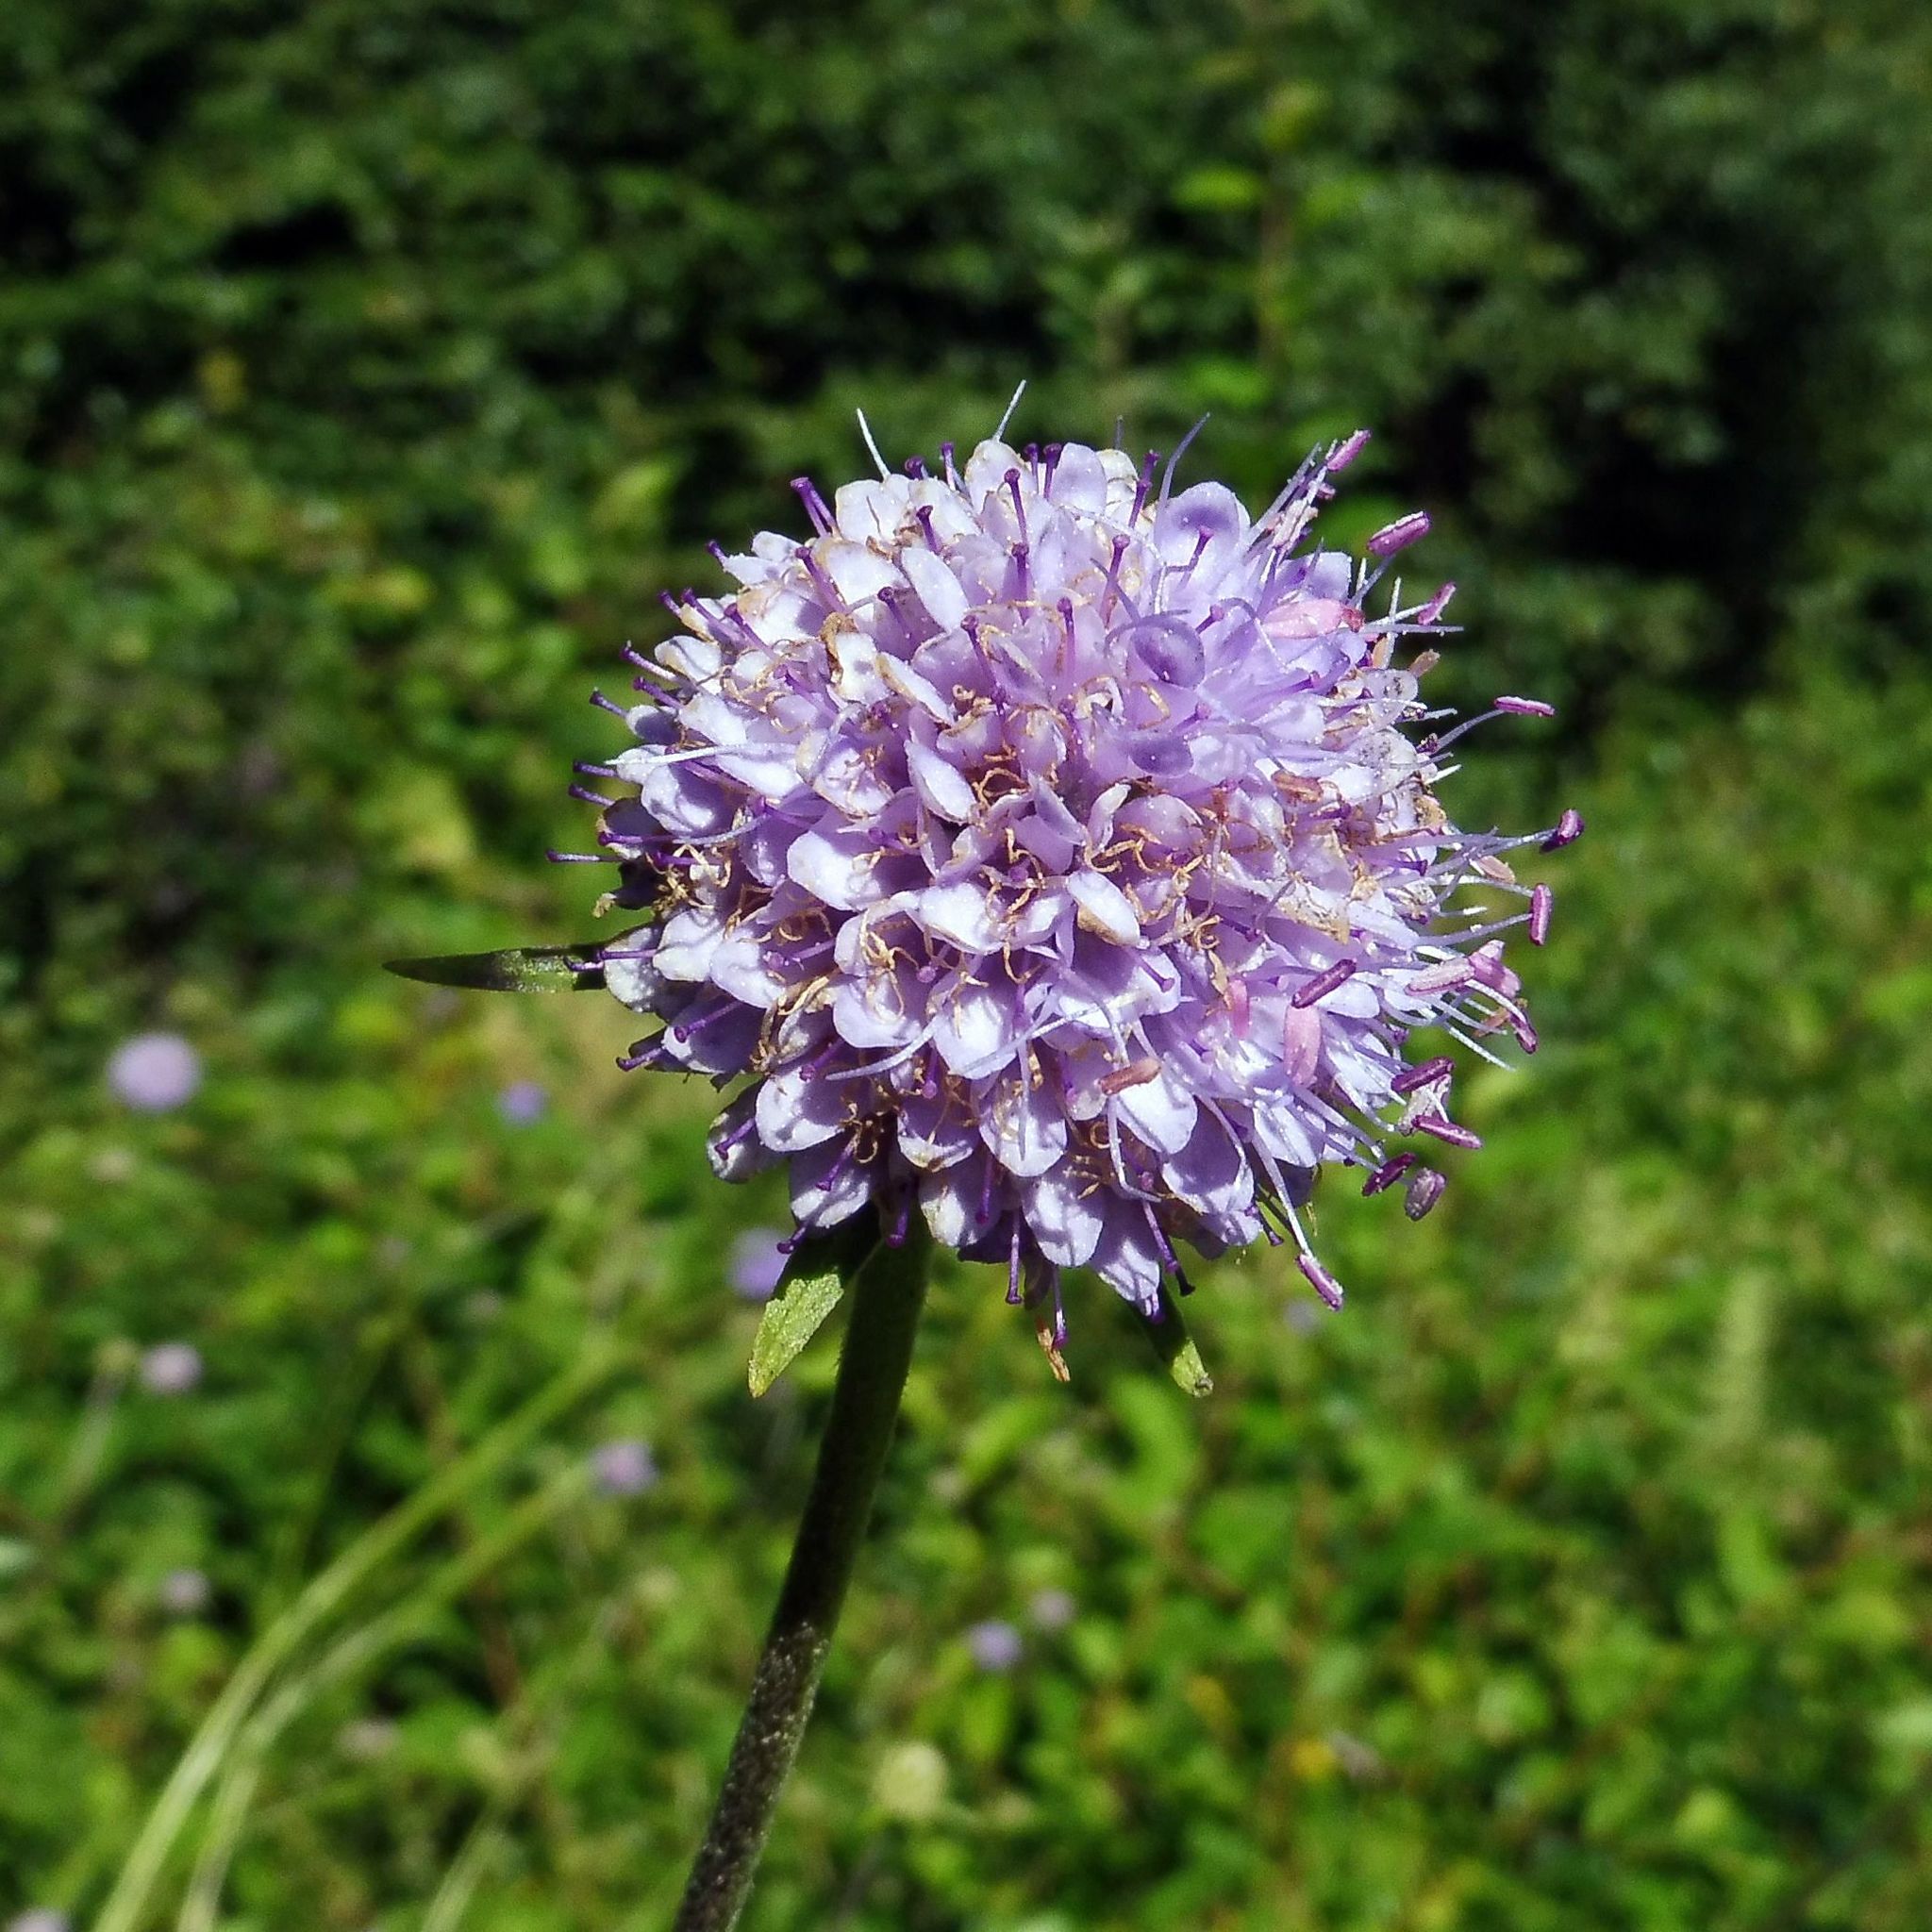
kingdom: Plantae
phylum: Tracheophyta
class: Magnoliopsida
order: Dipsacales
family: Caprifoliaceae
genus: Succisa
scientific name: Succisa pratensis
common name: Devil's-bit
